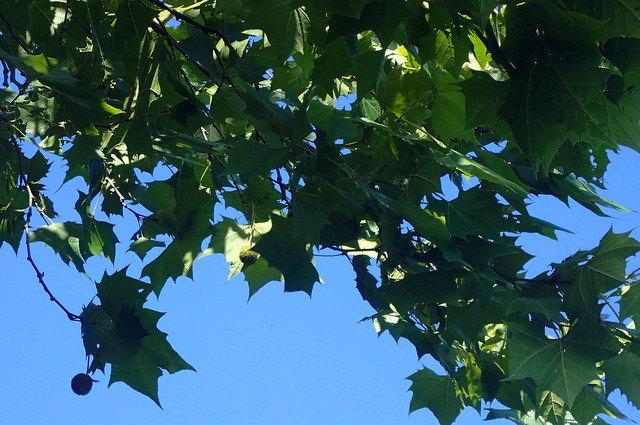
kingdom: Plantae
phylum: Tracheophyta
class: Magnoliopsida
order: Proteales
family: Platanaceae
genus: Platanus
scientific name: Platanus occidentalis
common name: American sycamore
